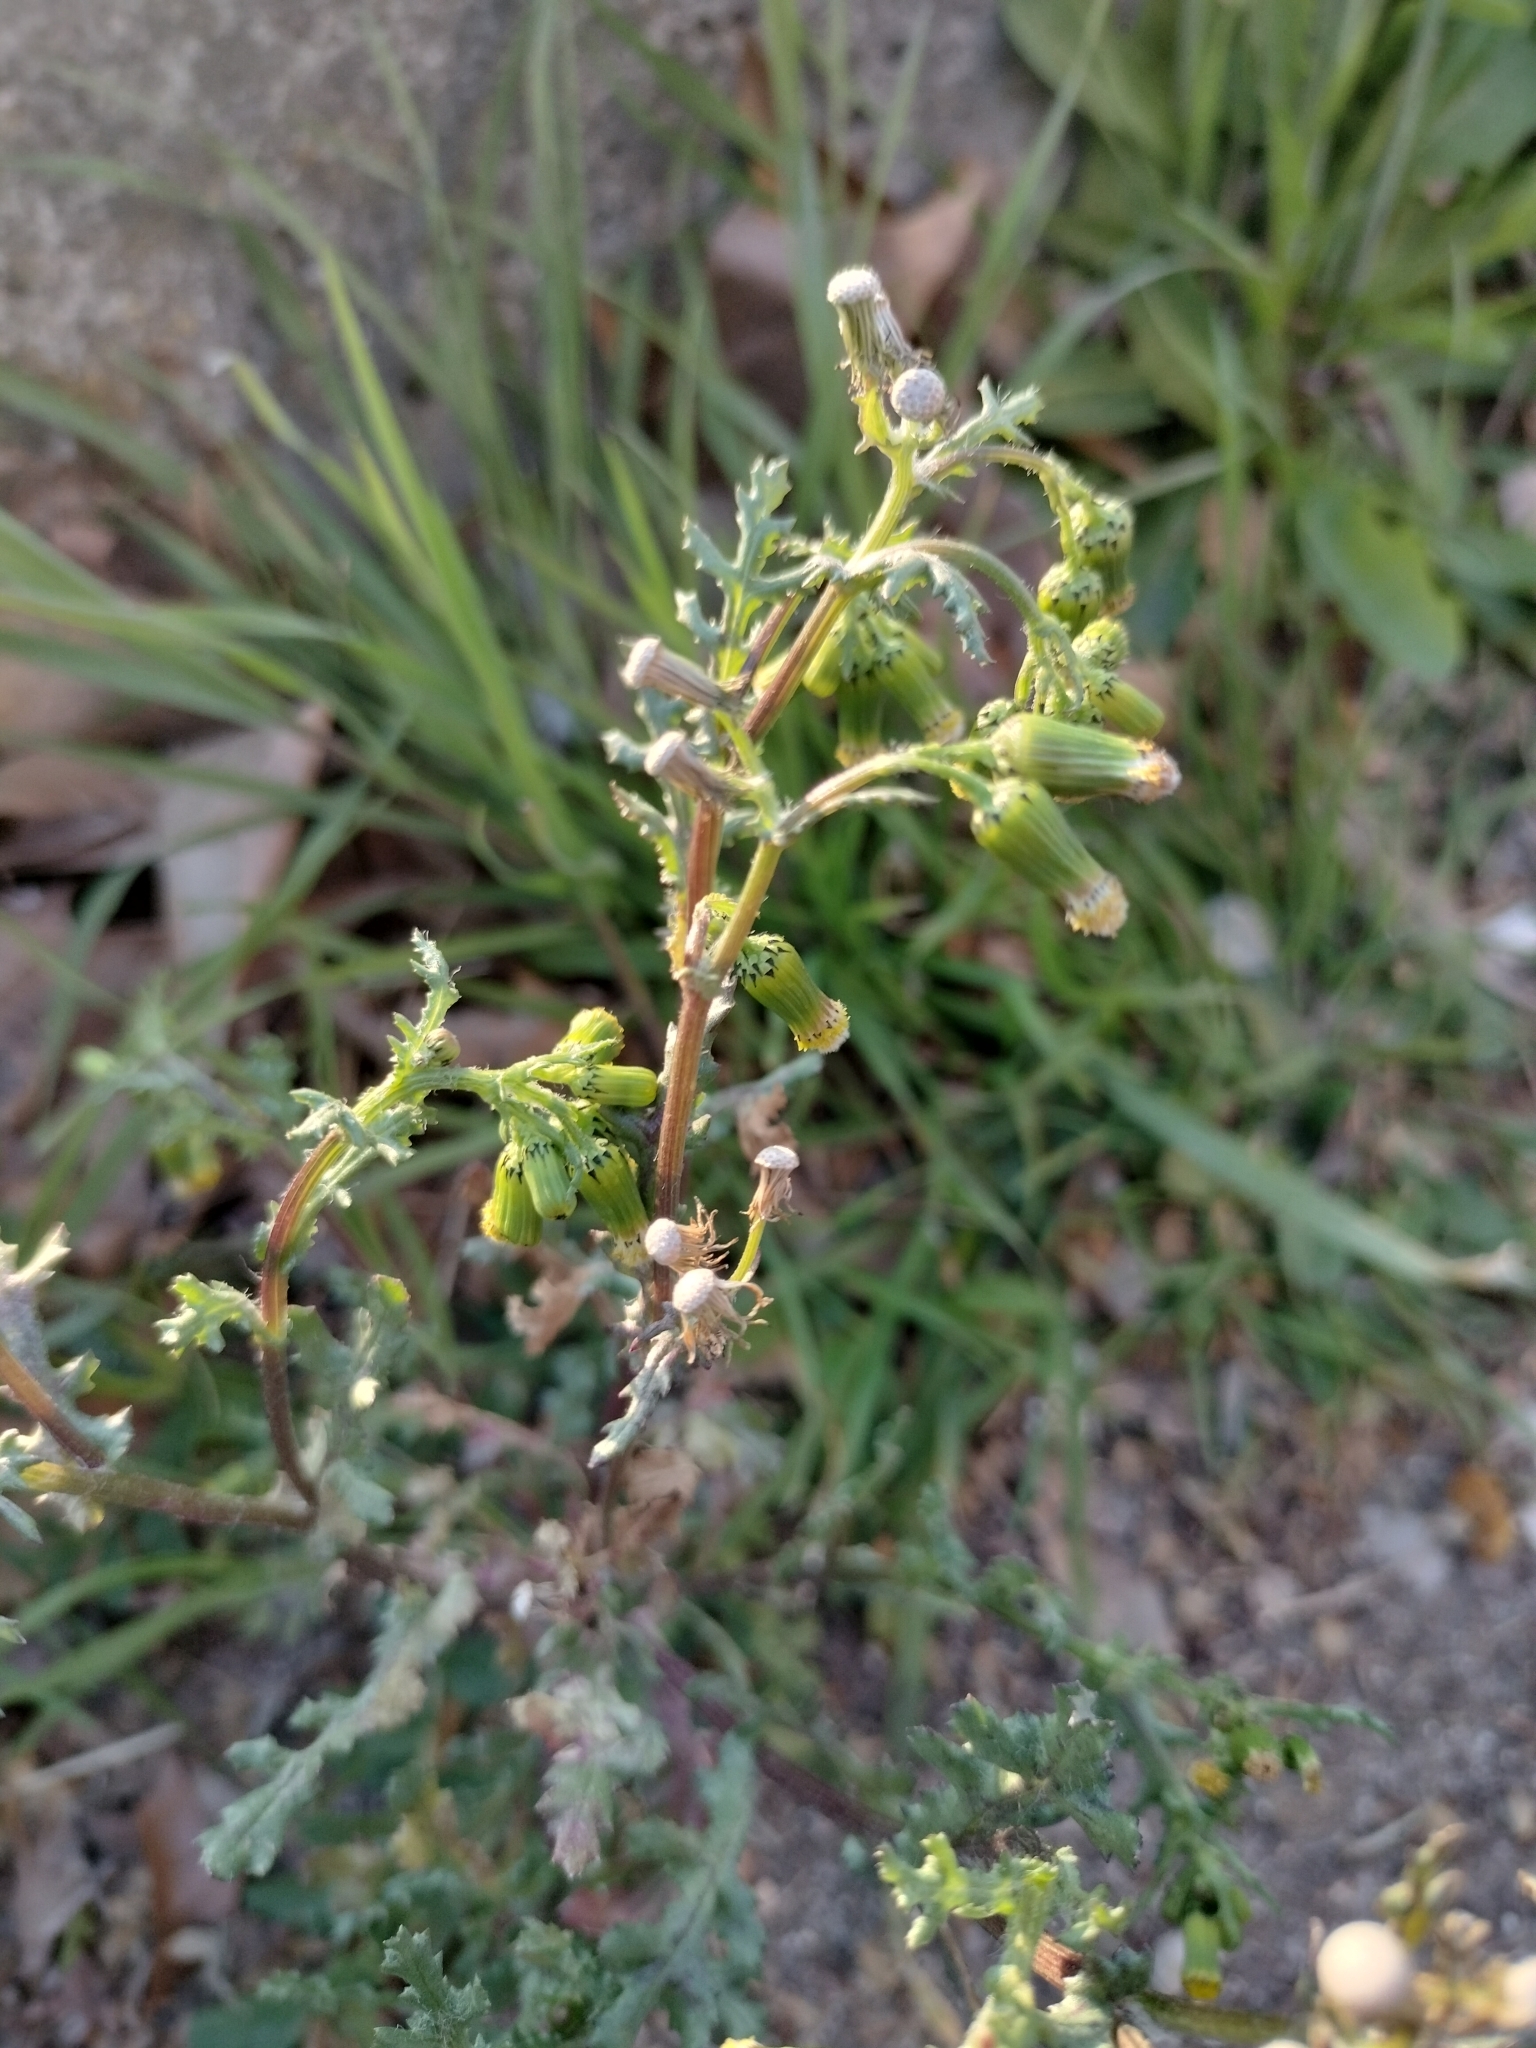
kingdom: Plantae
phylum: Tracheophyta
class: Magnoliopsida
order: Asterales
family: Asteraceae
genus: Senecio
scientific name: Senecio vulgaris
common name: Old-man-in-the-spring
